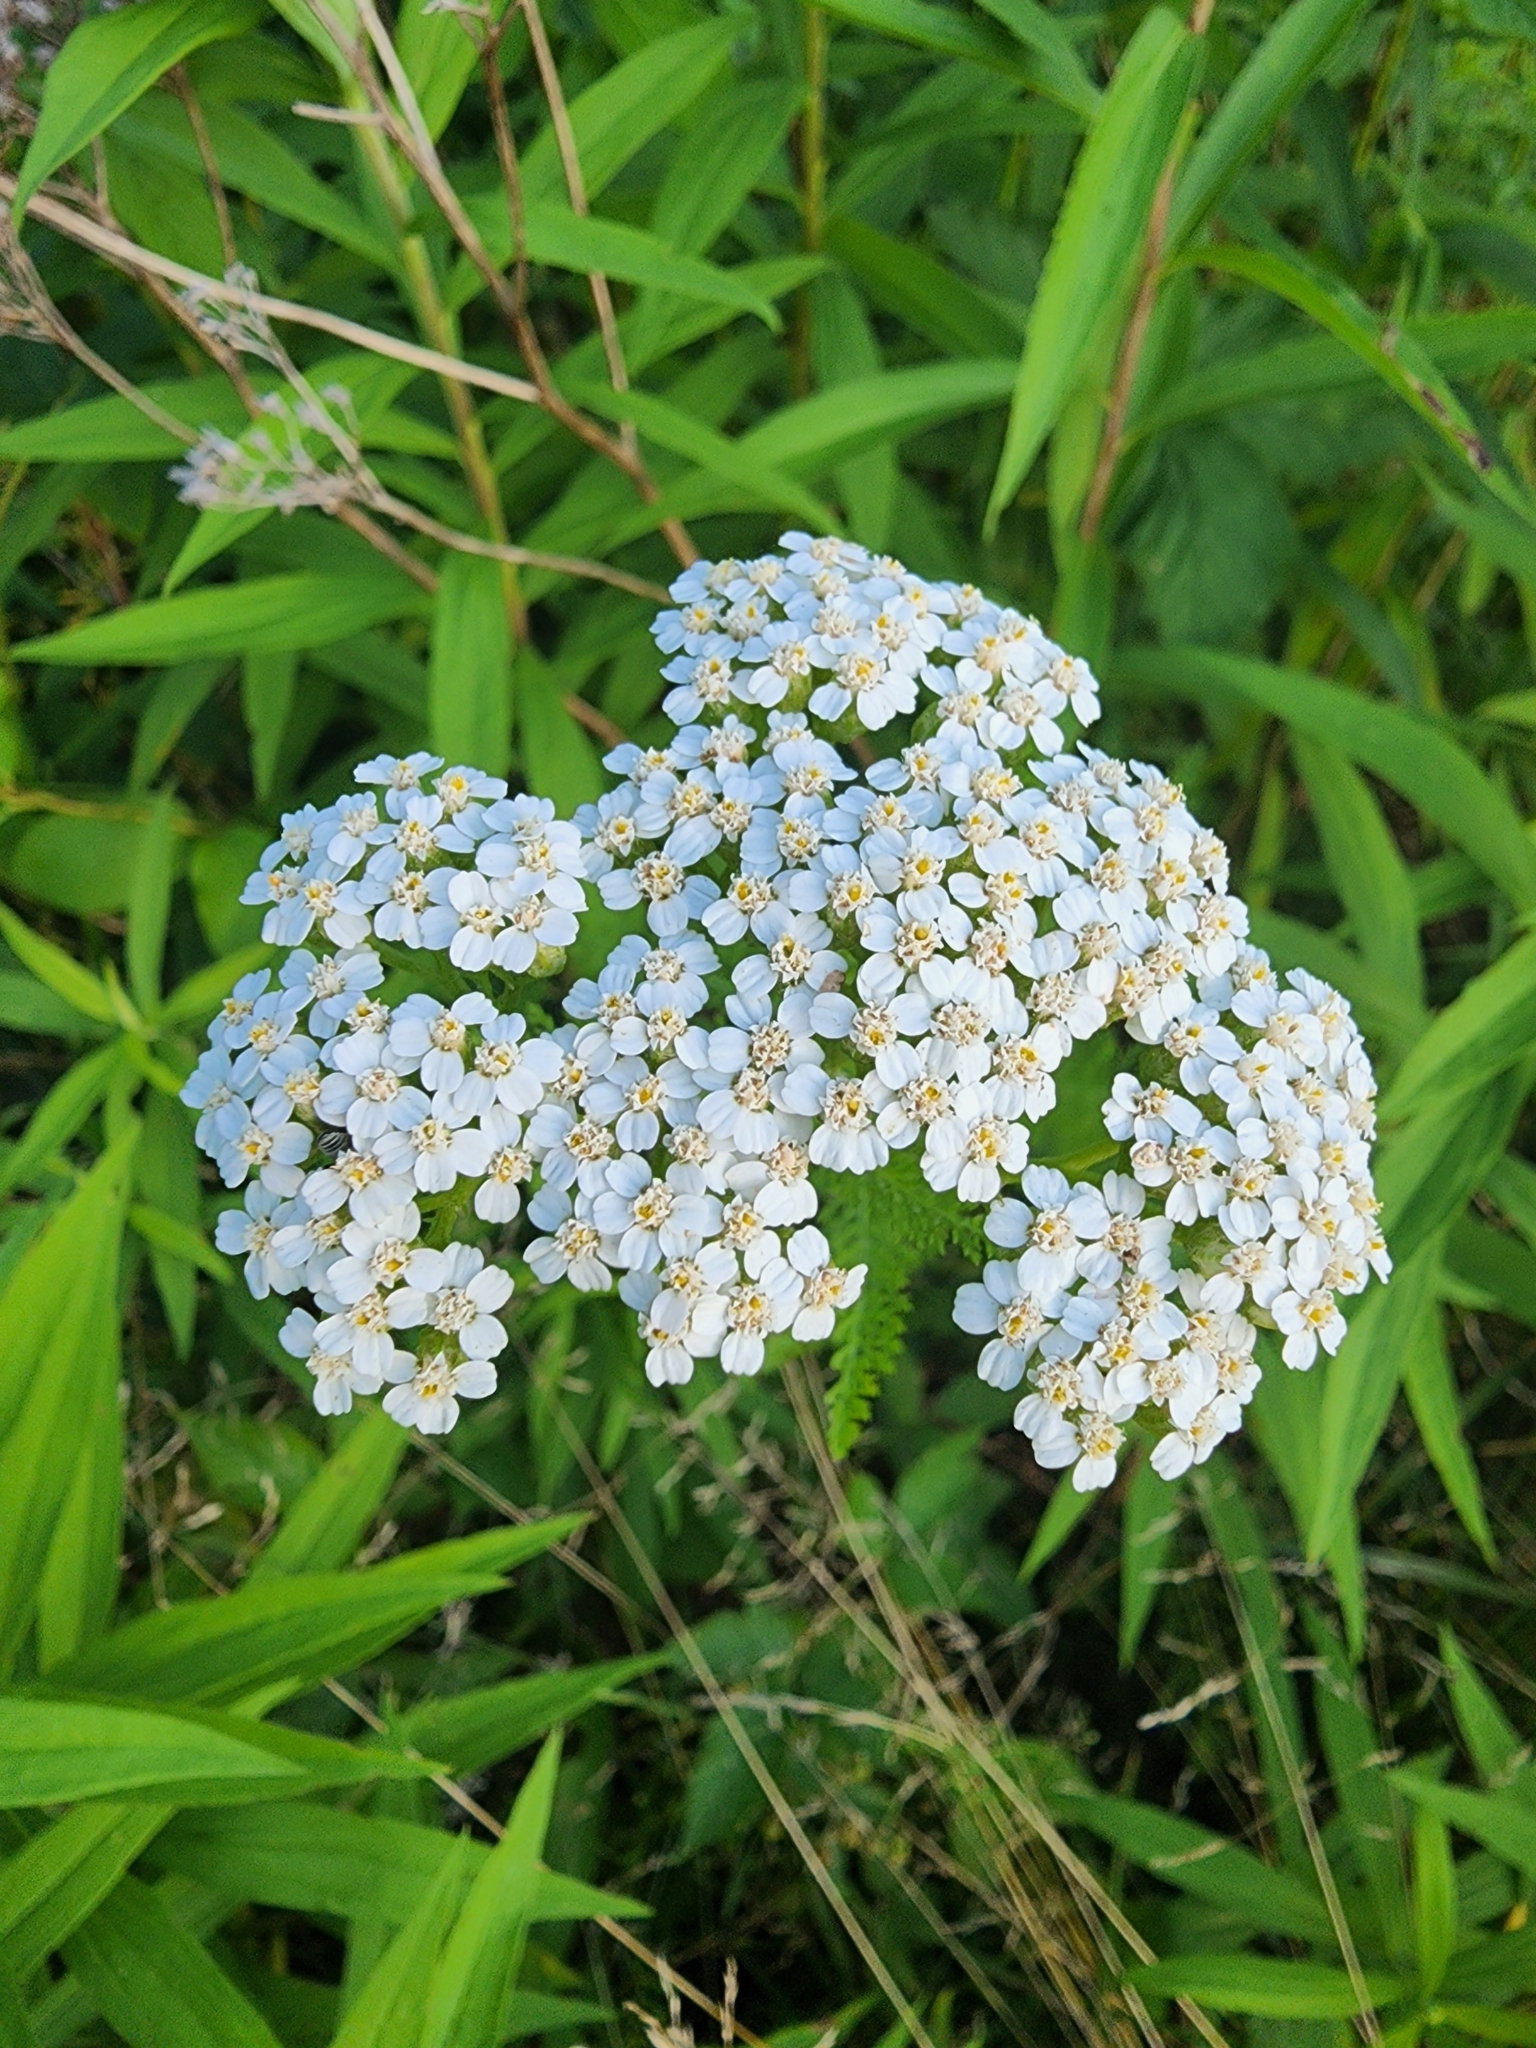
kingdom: Plantae
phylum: Tracheophyta
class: Magnoliopsida
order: Asterales
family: Asteraceae
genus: Achillea
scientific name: Achillea millefolium
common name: Yarrow
